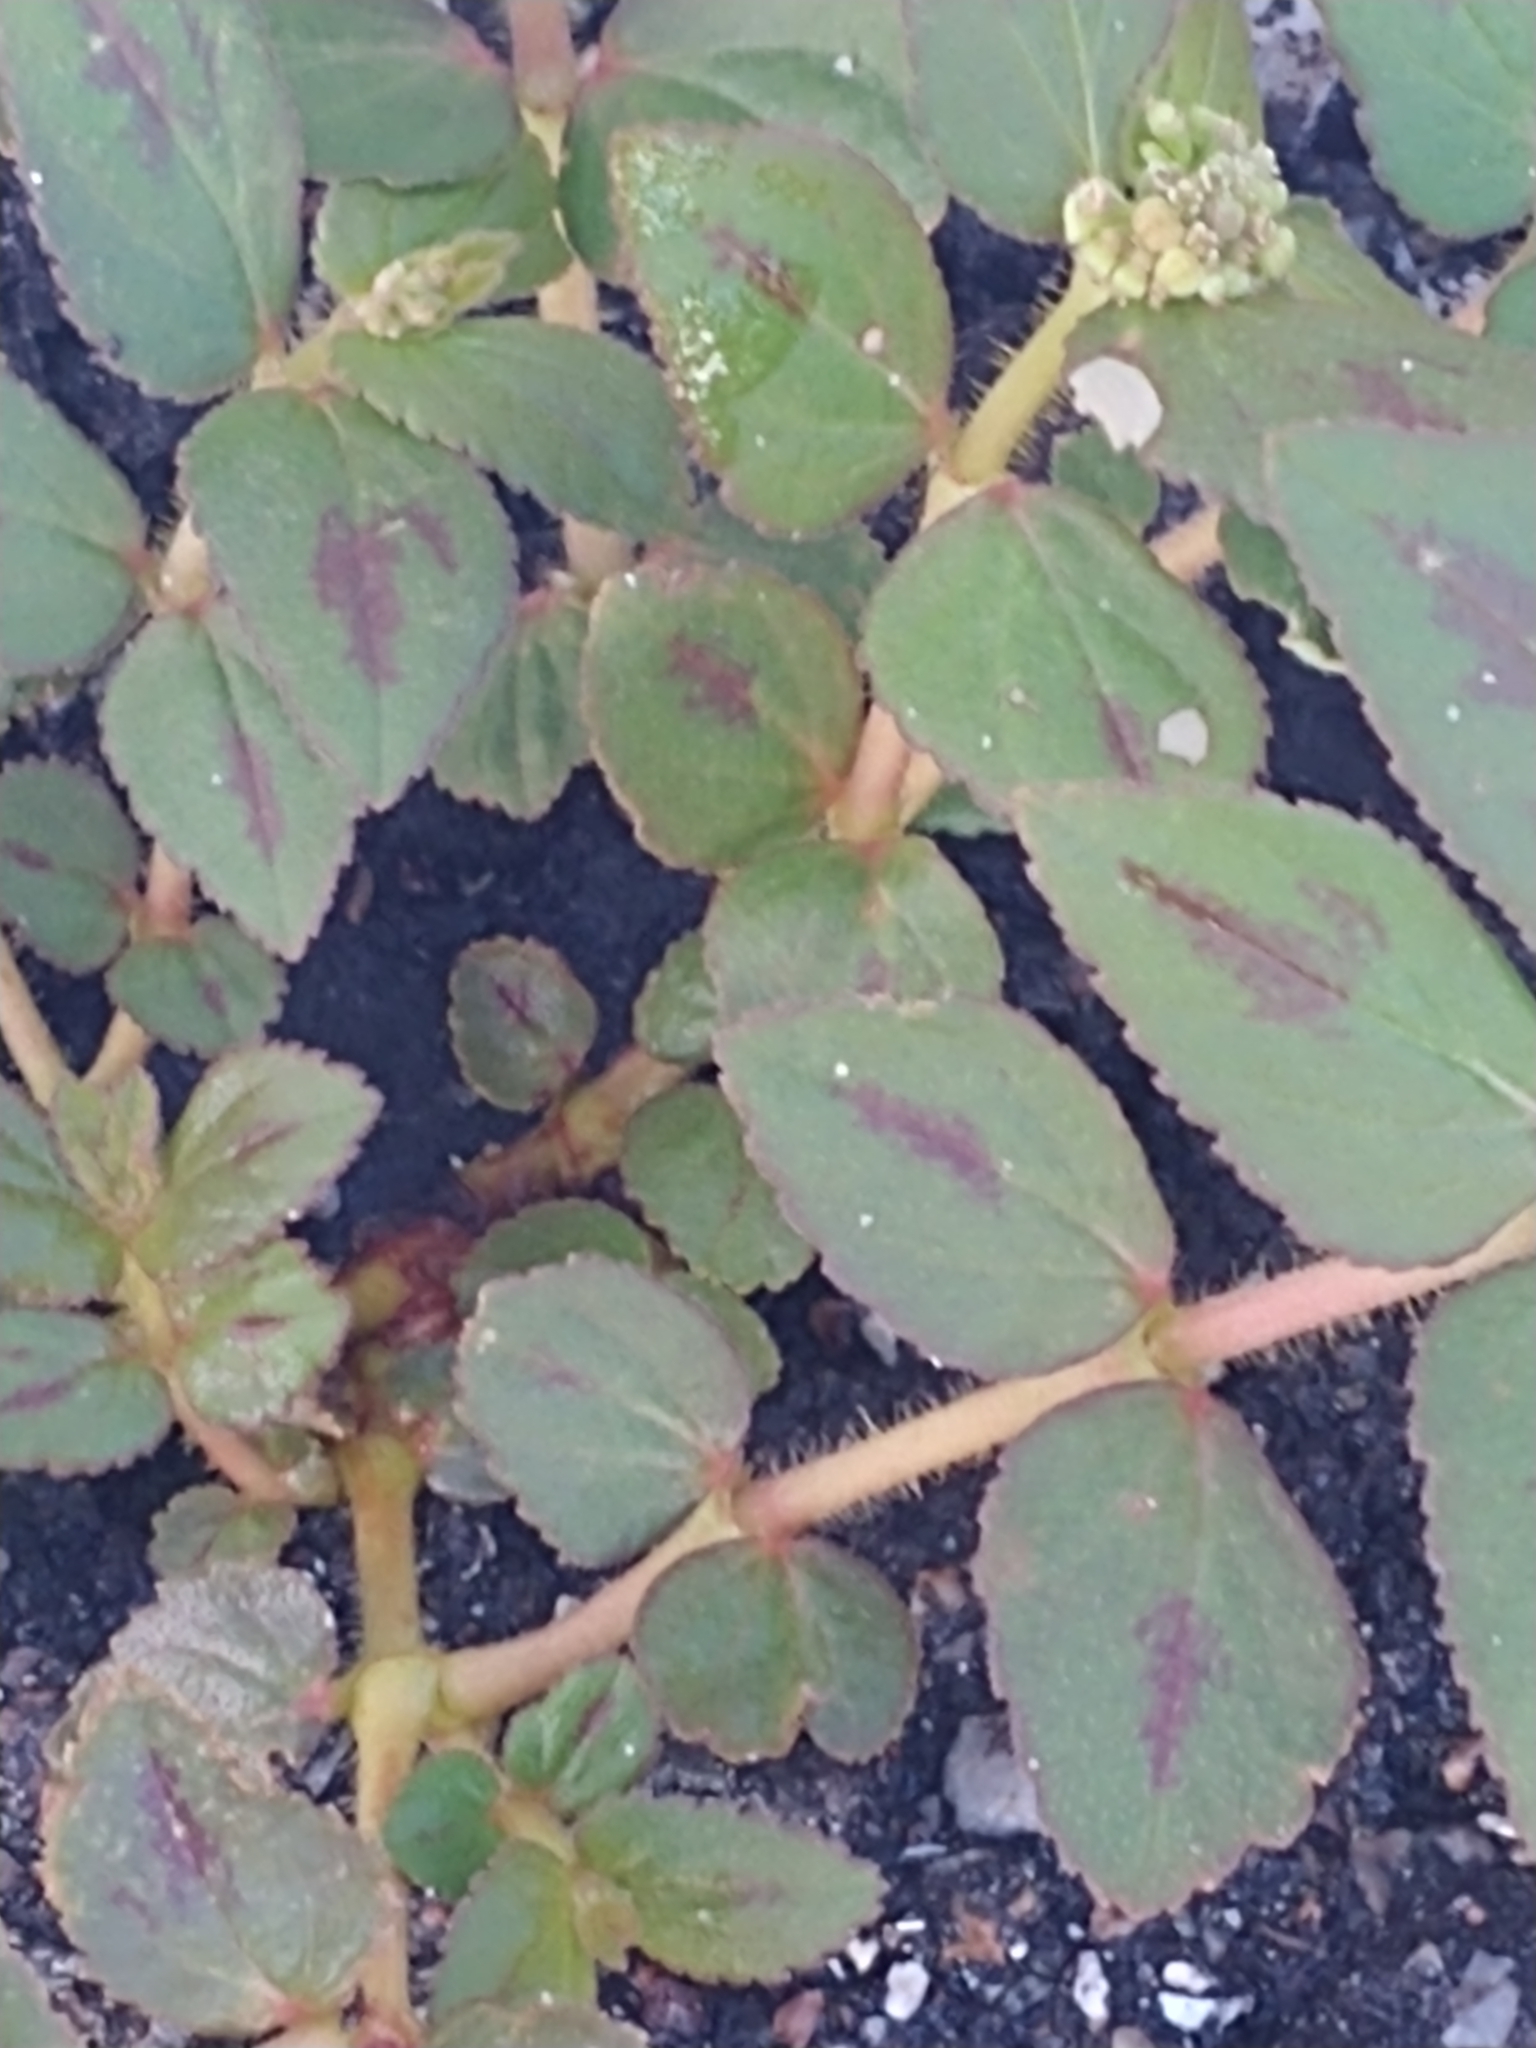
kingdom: Plantae
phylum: Tracheophyta
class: Magnoliopsida
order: Malpighiales
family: Euphorbiaceae
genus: Euphorbia
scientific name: Euphorbia hirta
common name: Pillpod sandmat
